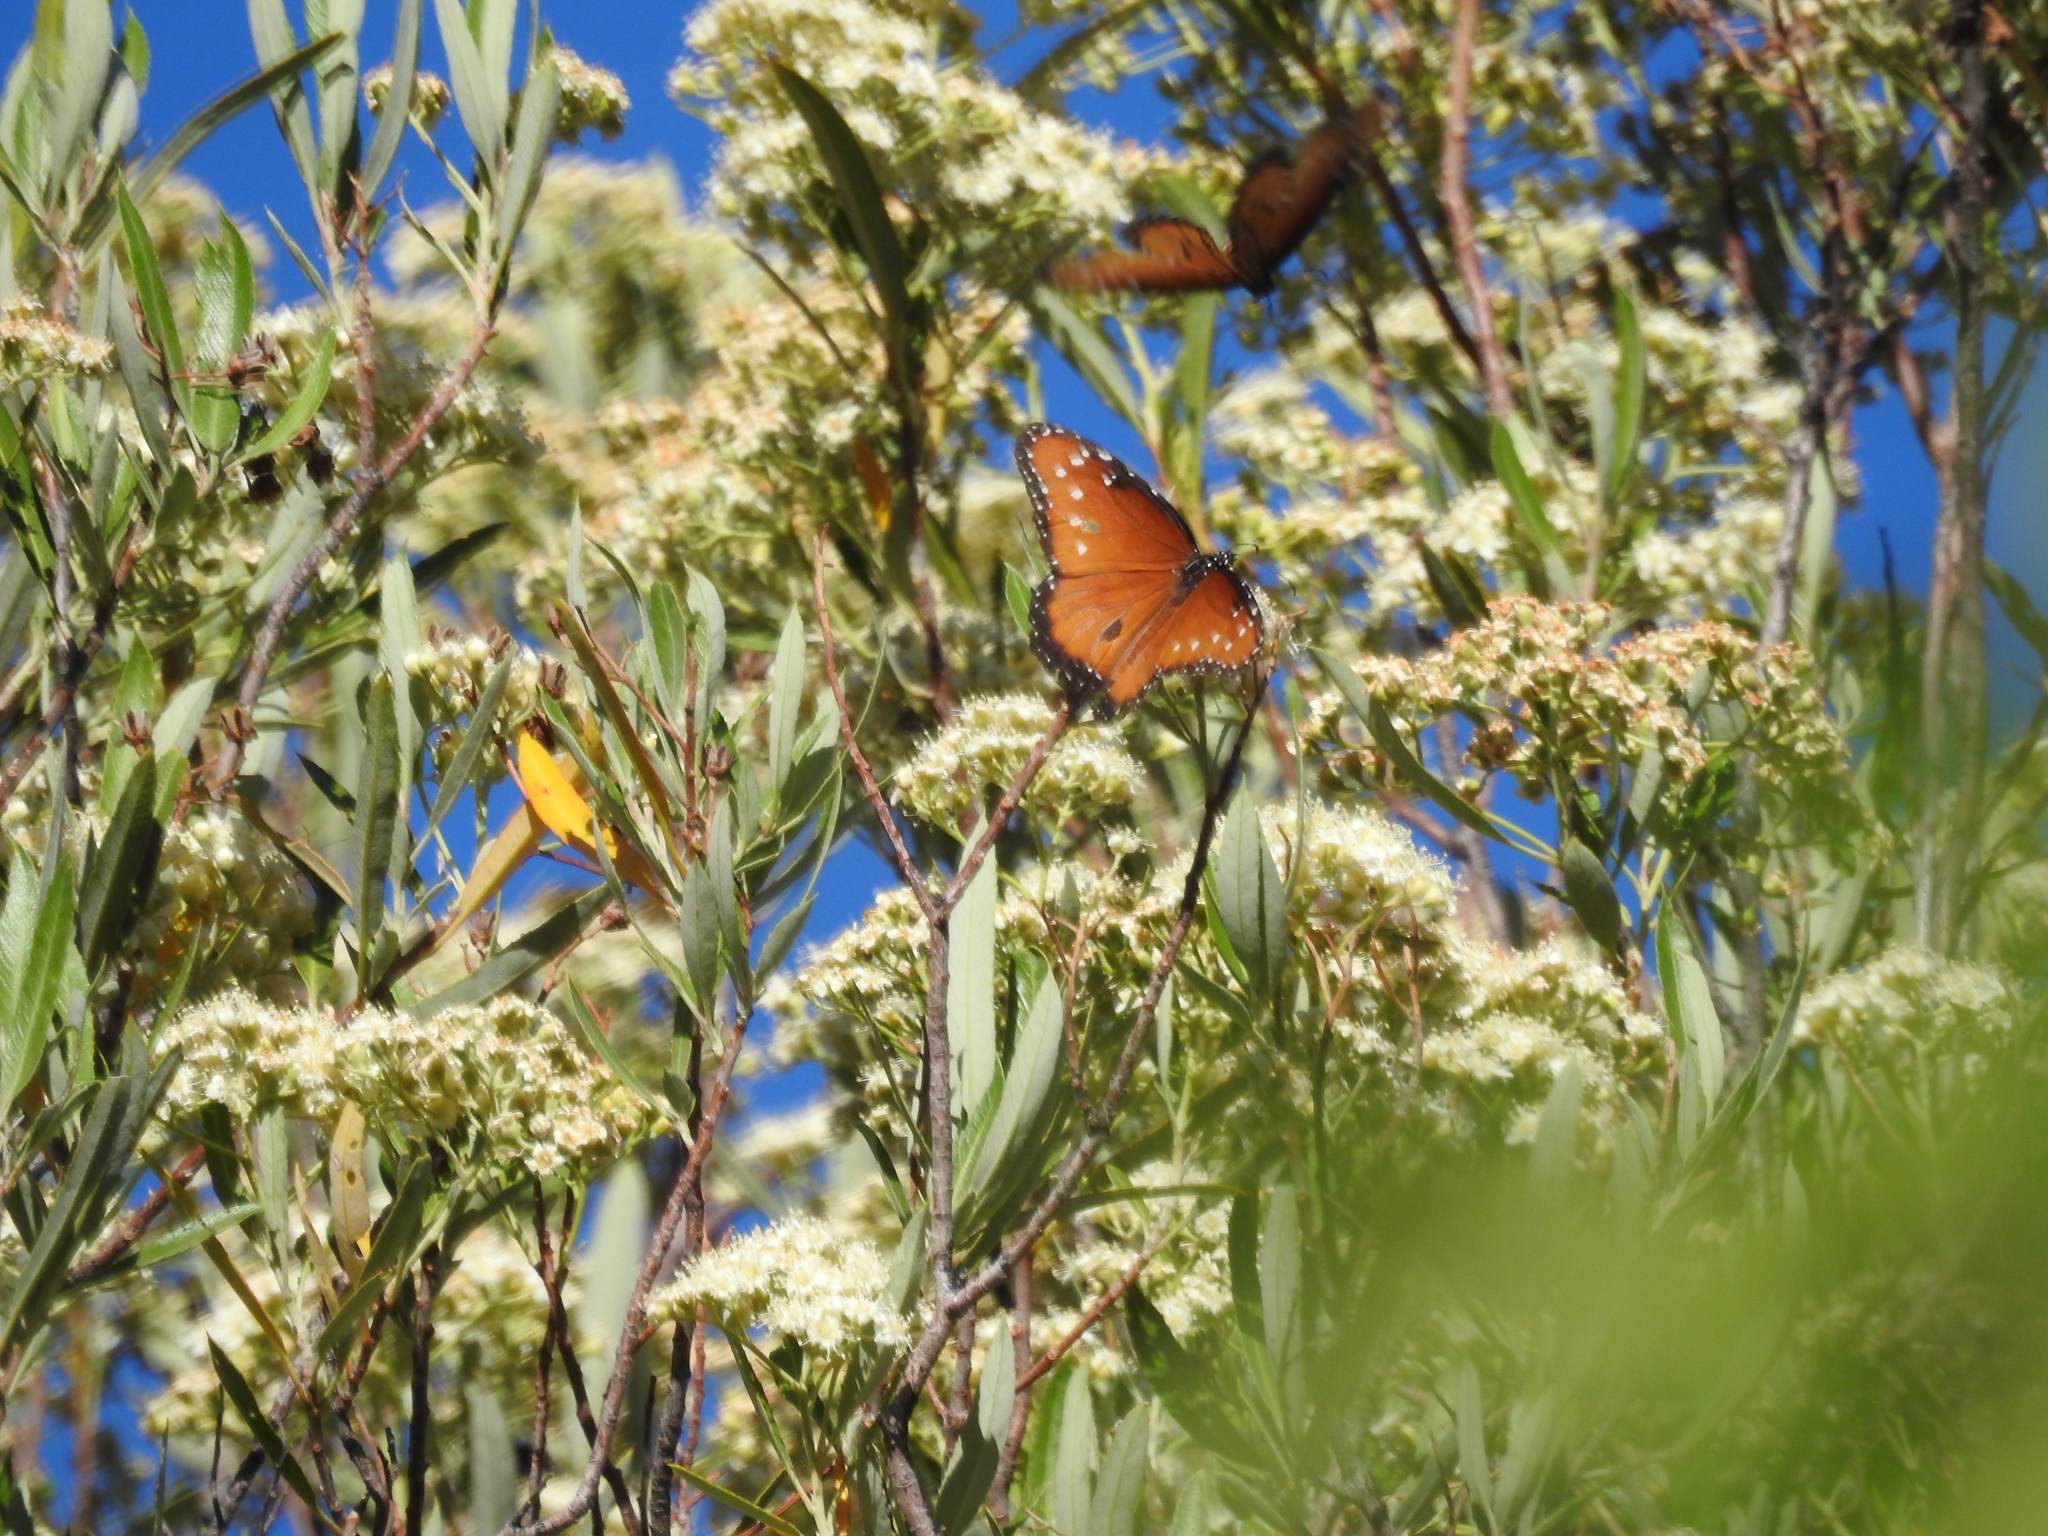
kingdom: Animalia
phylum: Arthropoda
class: Insecta
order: Lepidoptera
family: Nymphalidae
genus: Danaus
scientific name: Danaus gilippus
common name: Queen
